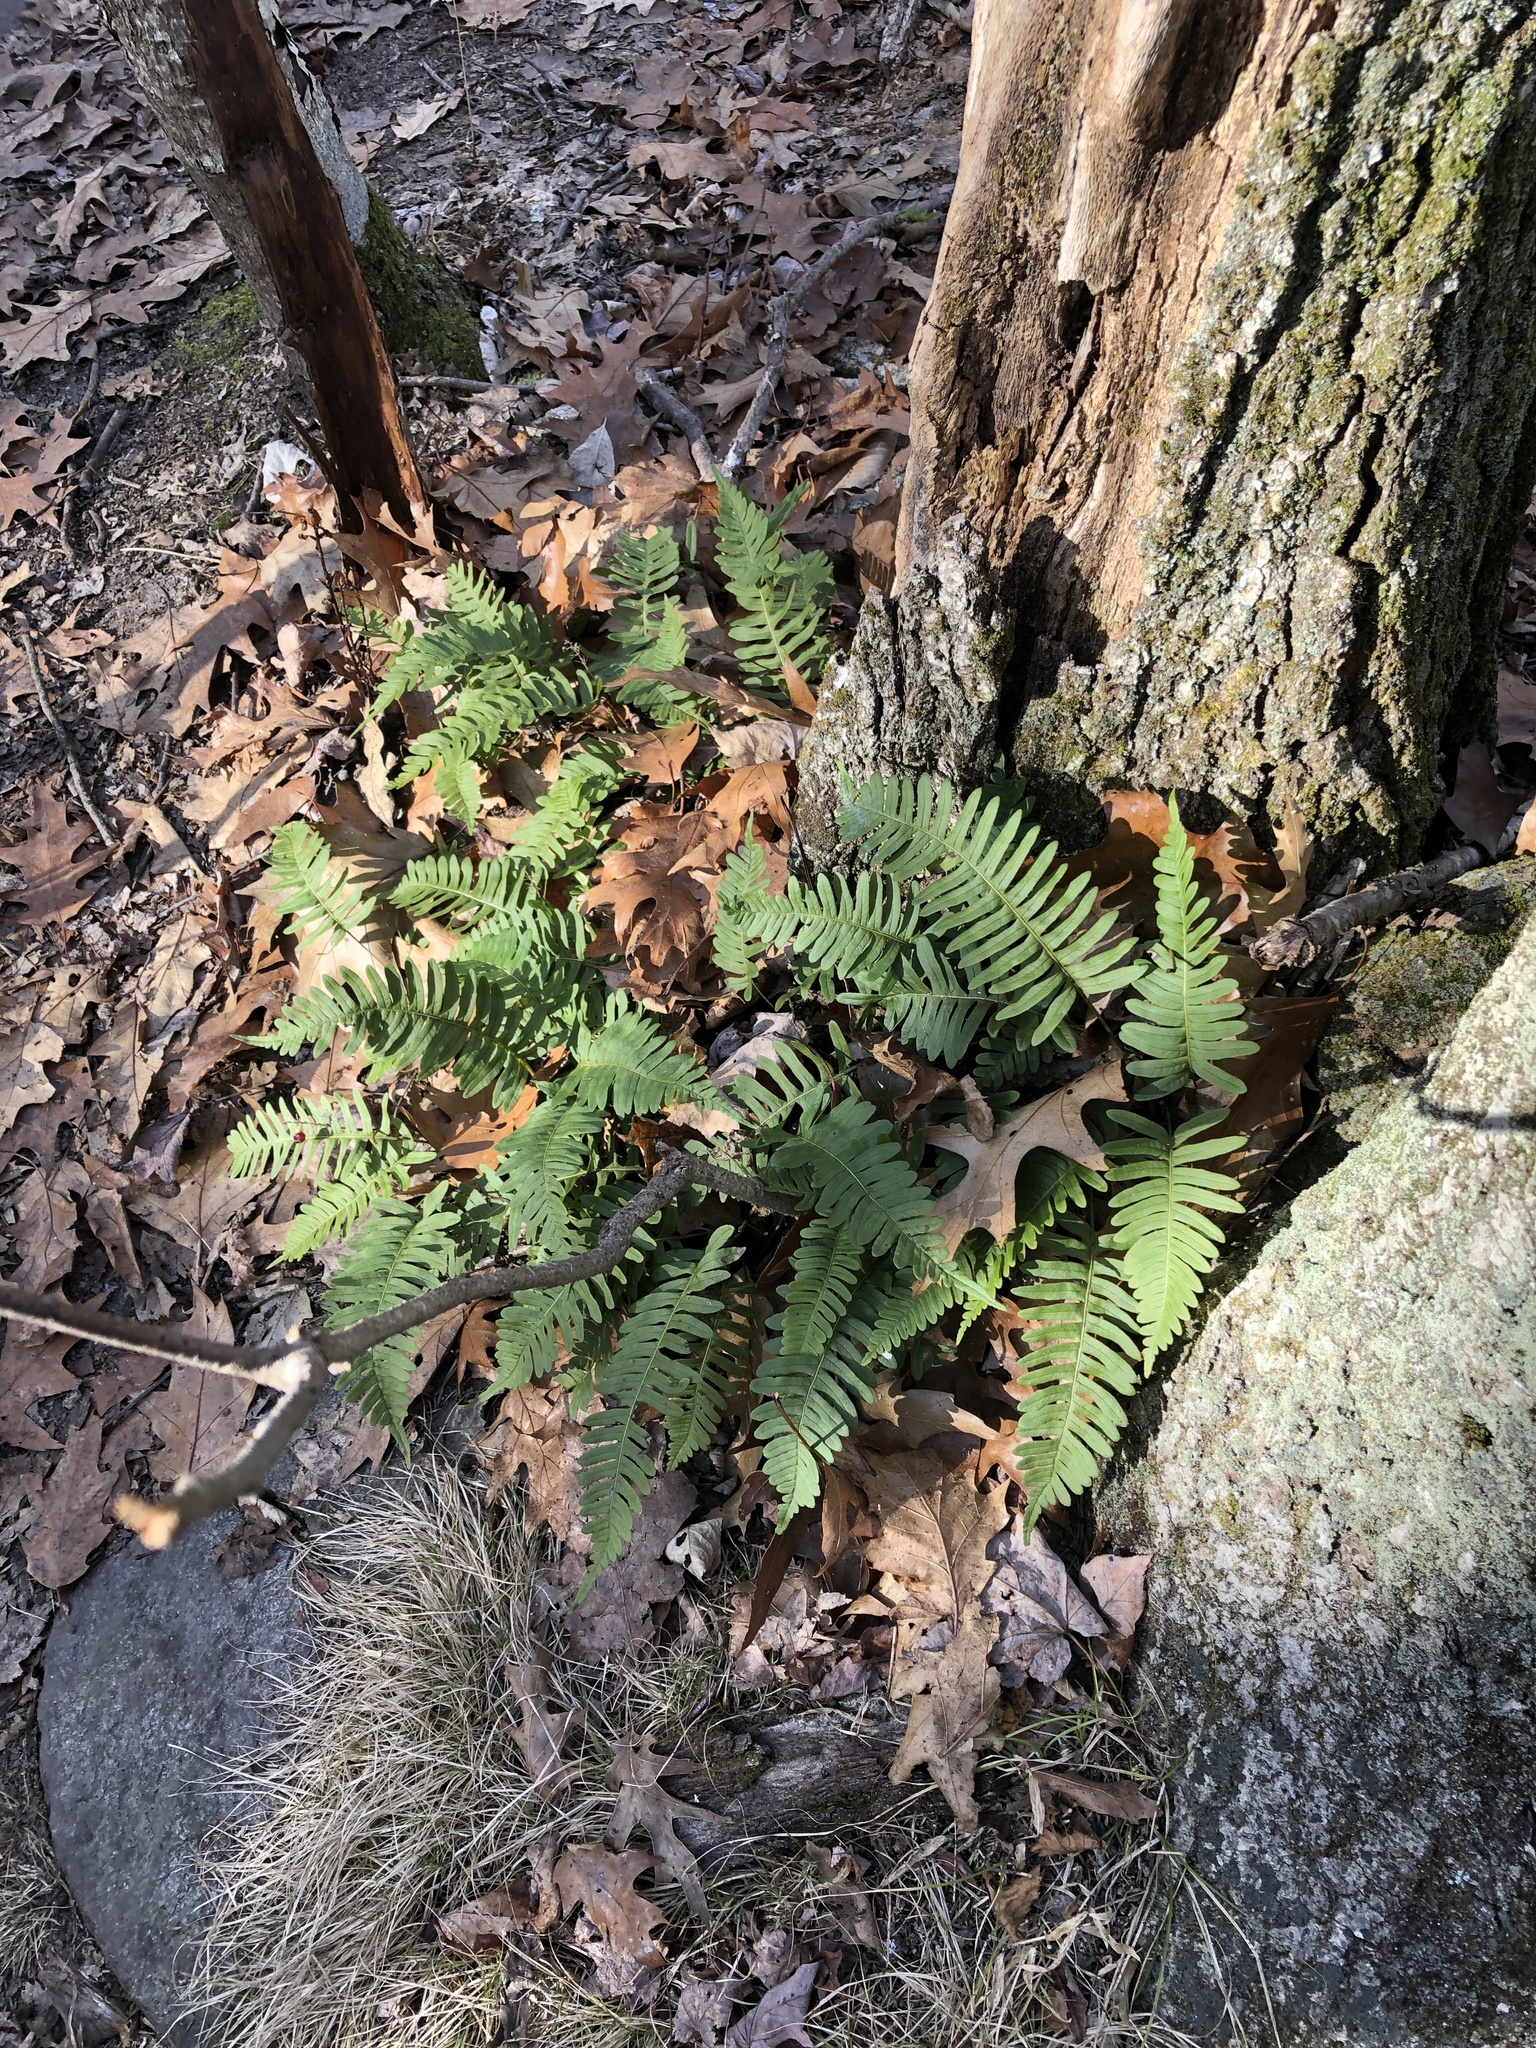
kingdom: Plantae
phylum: Tracheophyta
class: Polypodiopsida
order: Polypodiales
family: Polypodiaceae
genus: Polypodium
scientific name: Polypodium appalachianum
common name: Appalachian polypody
